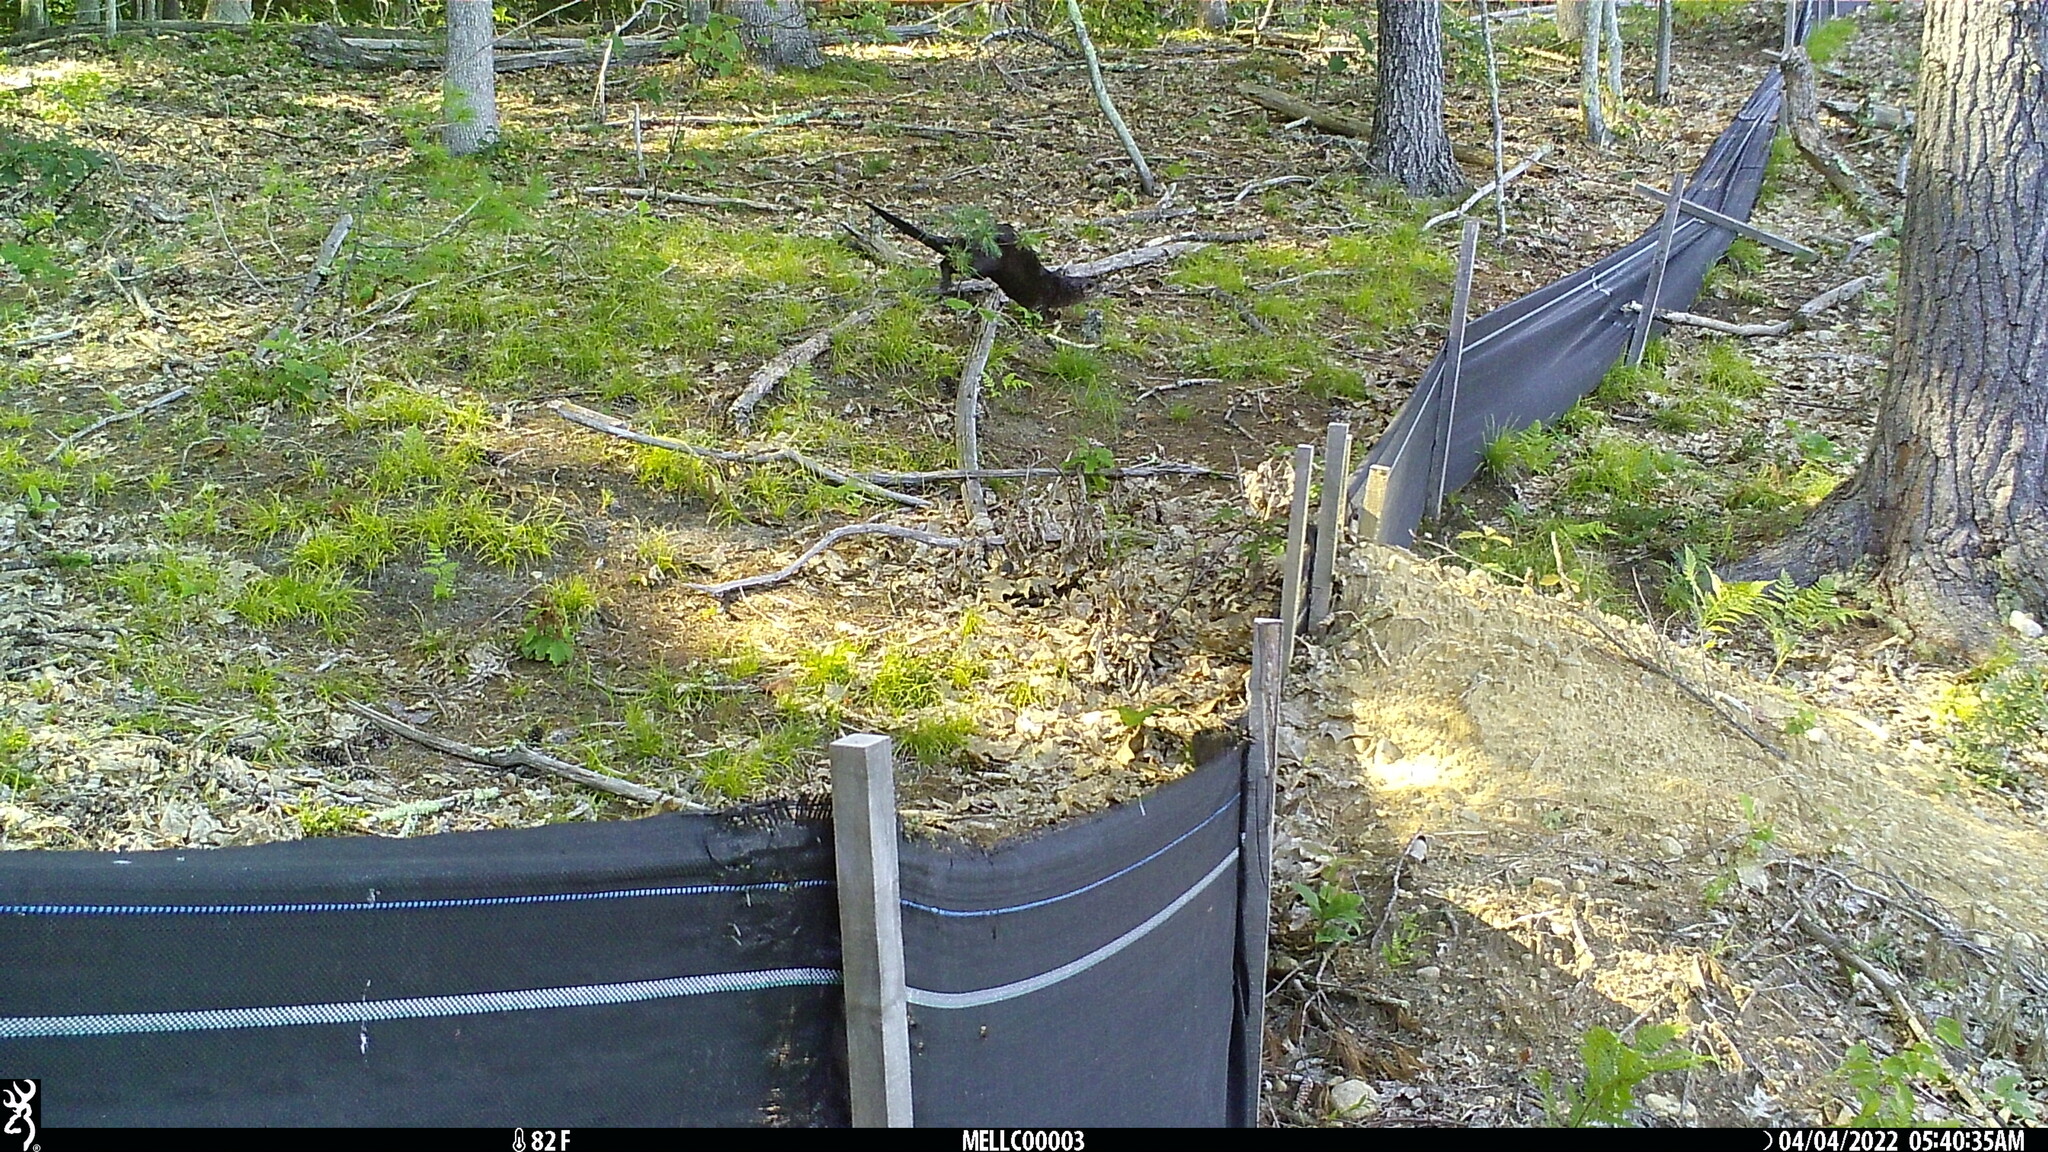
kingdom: Animalia
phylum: Chordata
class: Mammalia
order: Carnivora
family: Mustelidae
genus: Lontra
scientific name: Lontra canadensis
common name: North american river otter
